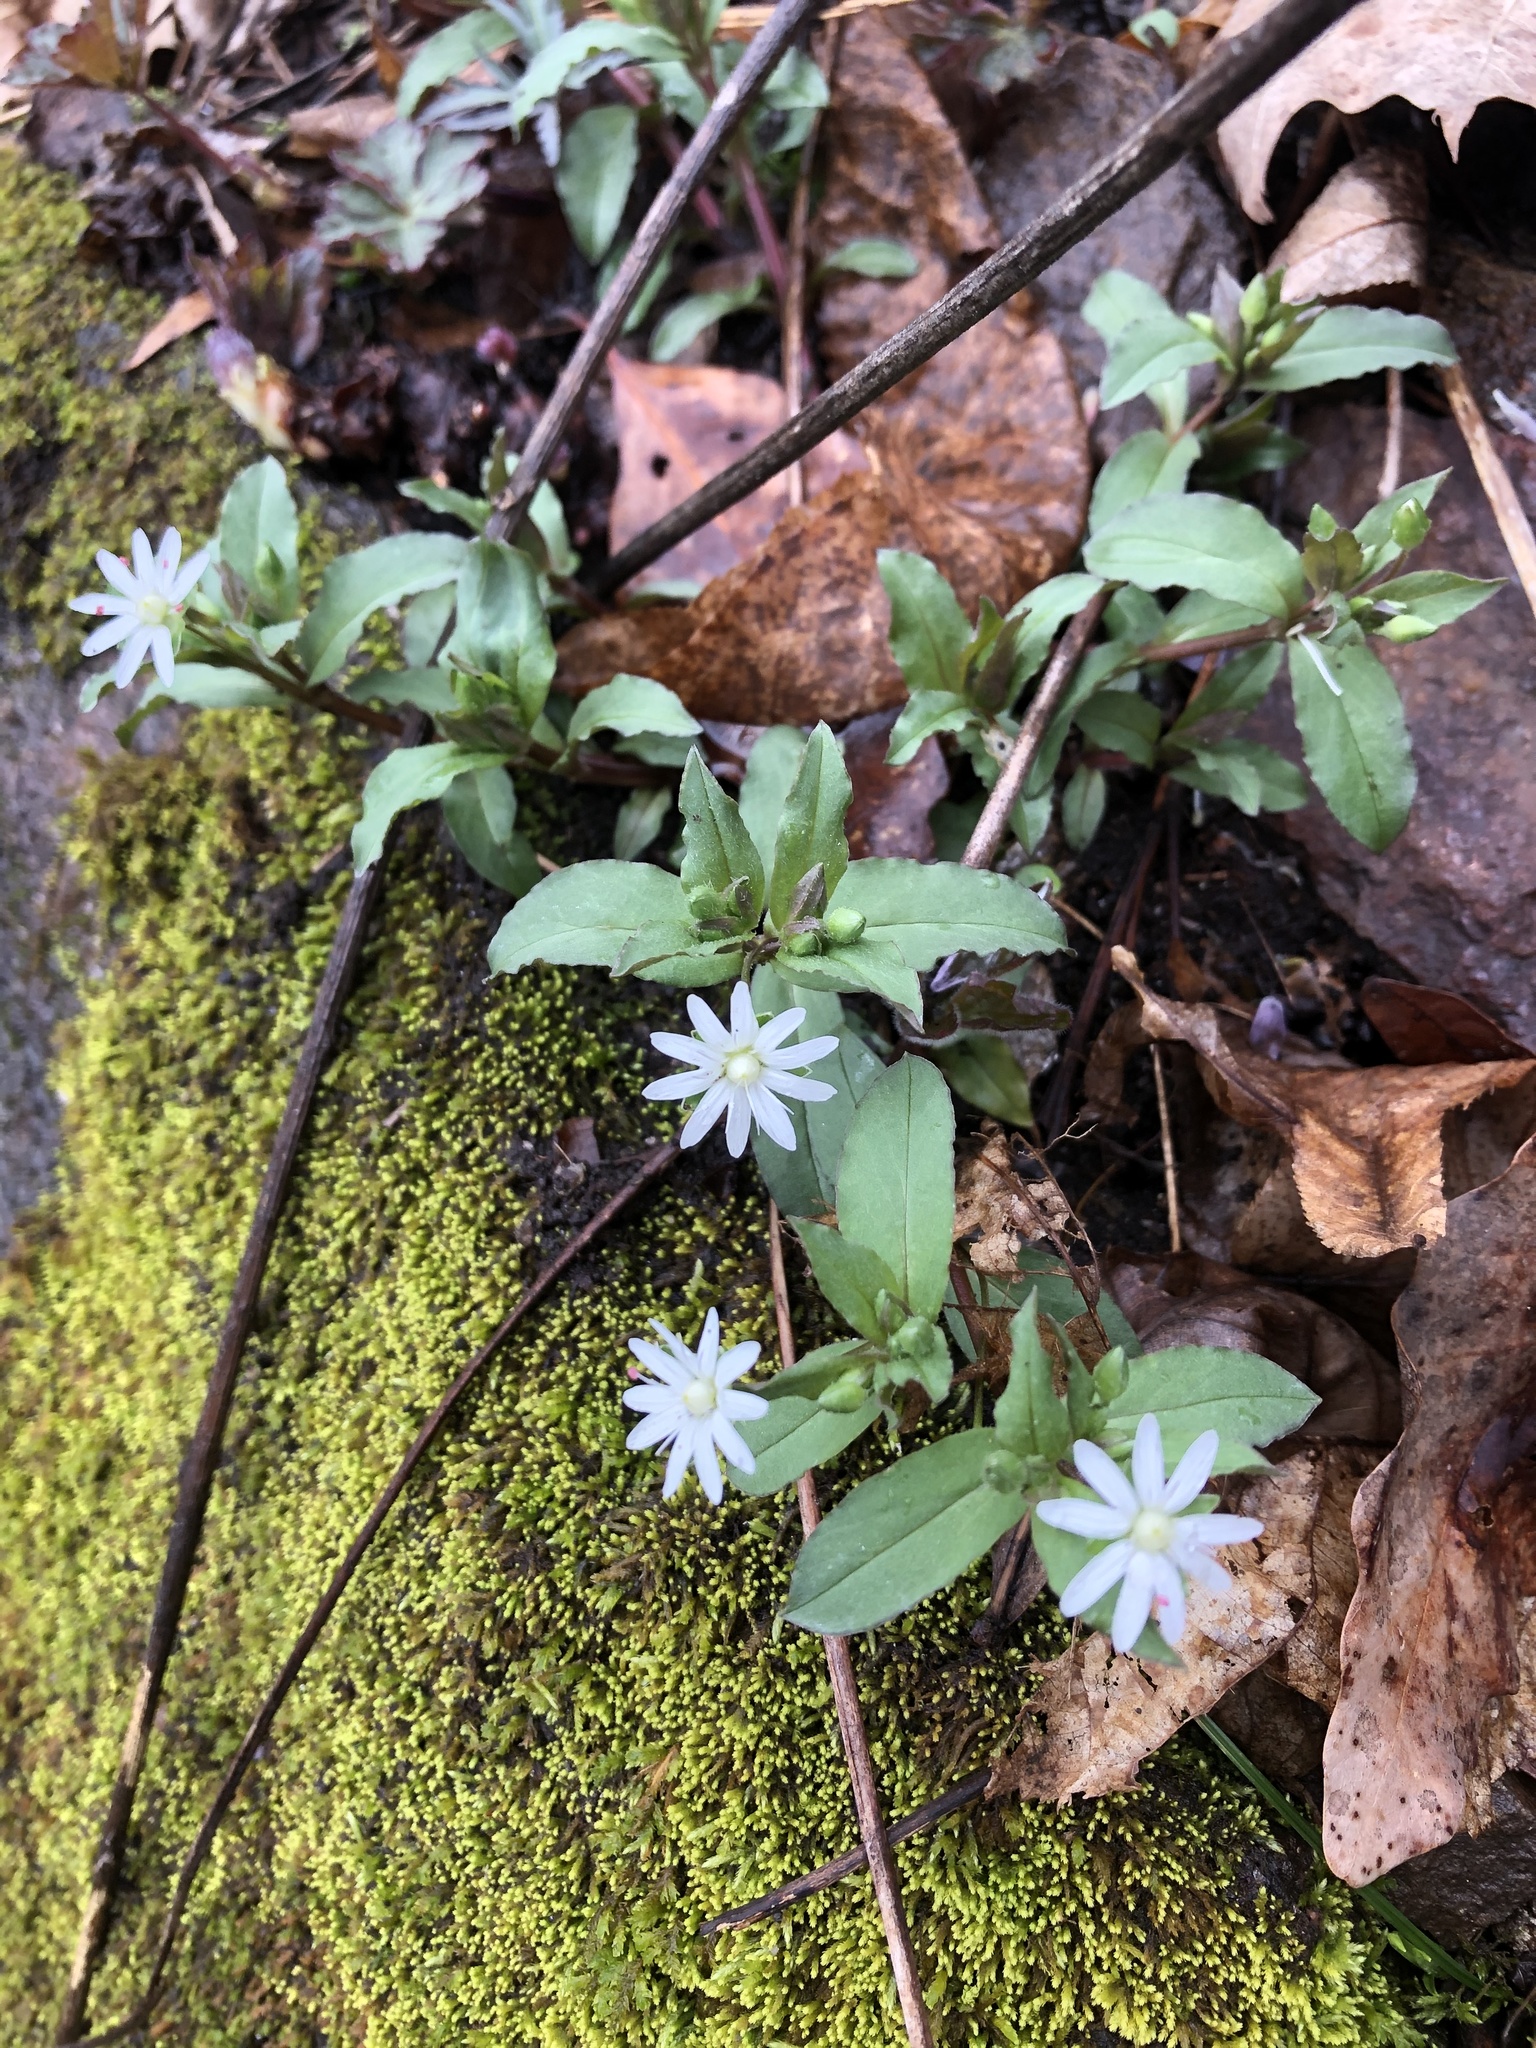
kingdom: Plantae
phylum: Tracheophyta
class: Magnoliopsida
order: Caryophyllales
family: Caryophyllaceae
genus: Stellaria
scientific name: Stellaria pubera
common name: Star chickweed
